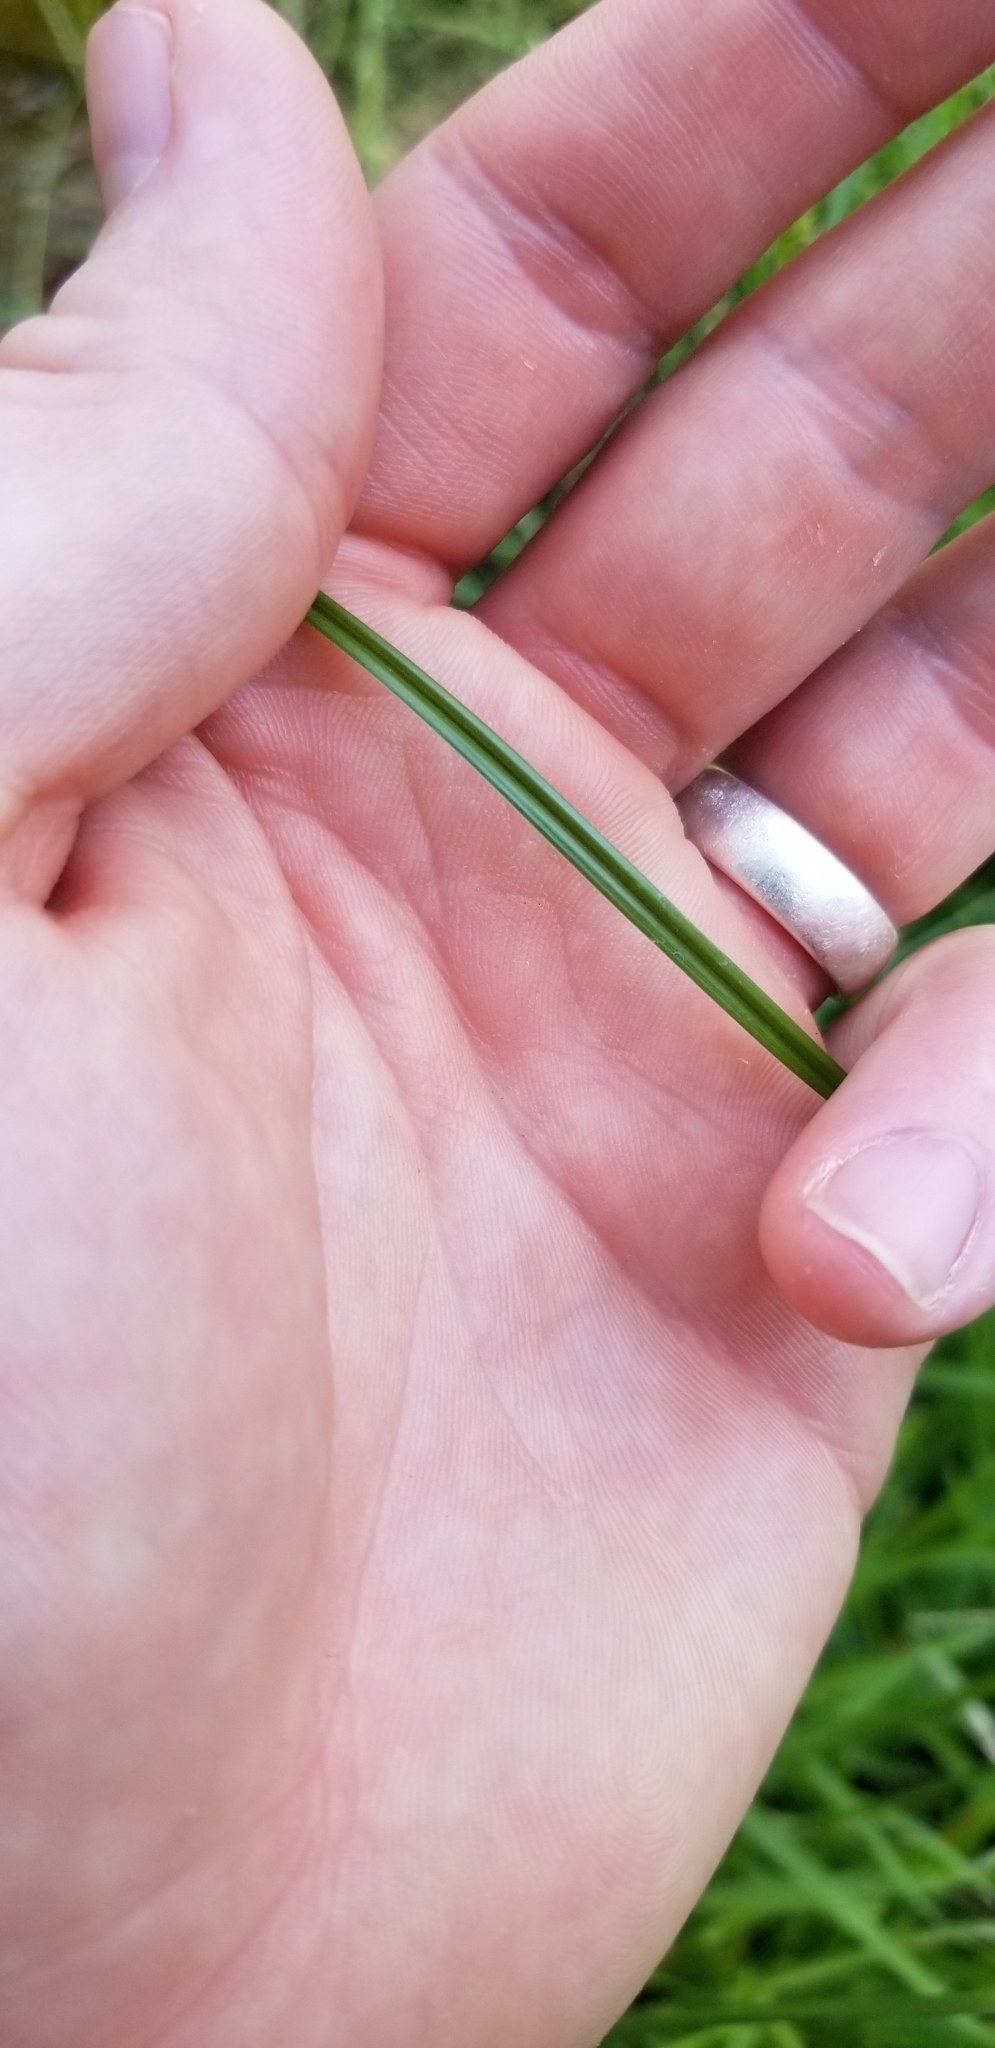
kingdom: Plantae
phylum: Tracheophyta
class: Liliopsida
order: Poales
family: Cyperaceae
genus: Cyperus
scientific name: Cyperus retrorsus
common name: Pinebarren flat sedge
